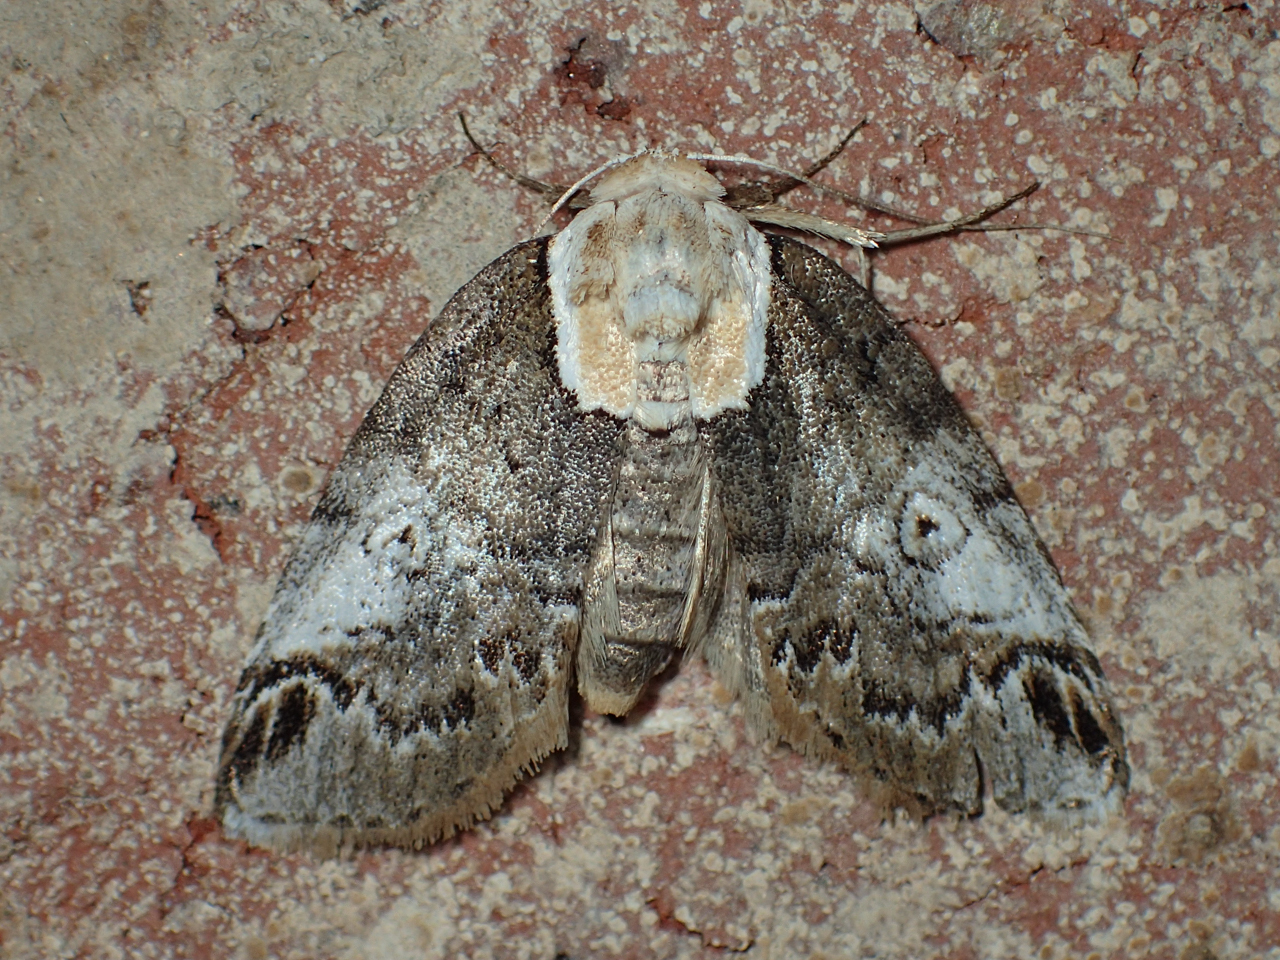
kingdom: Animalia
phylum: Arthropoda
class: Insecta
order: Lepidoptera
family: Nolidae
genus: Baileya
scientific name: Baileya ophthalmica
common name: Eyed baileya moth
